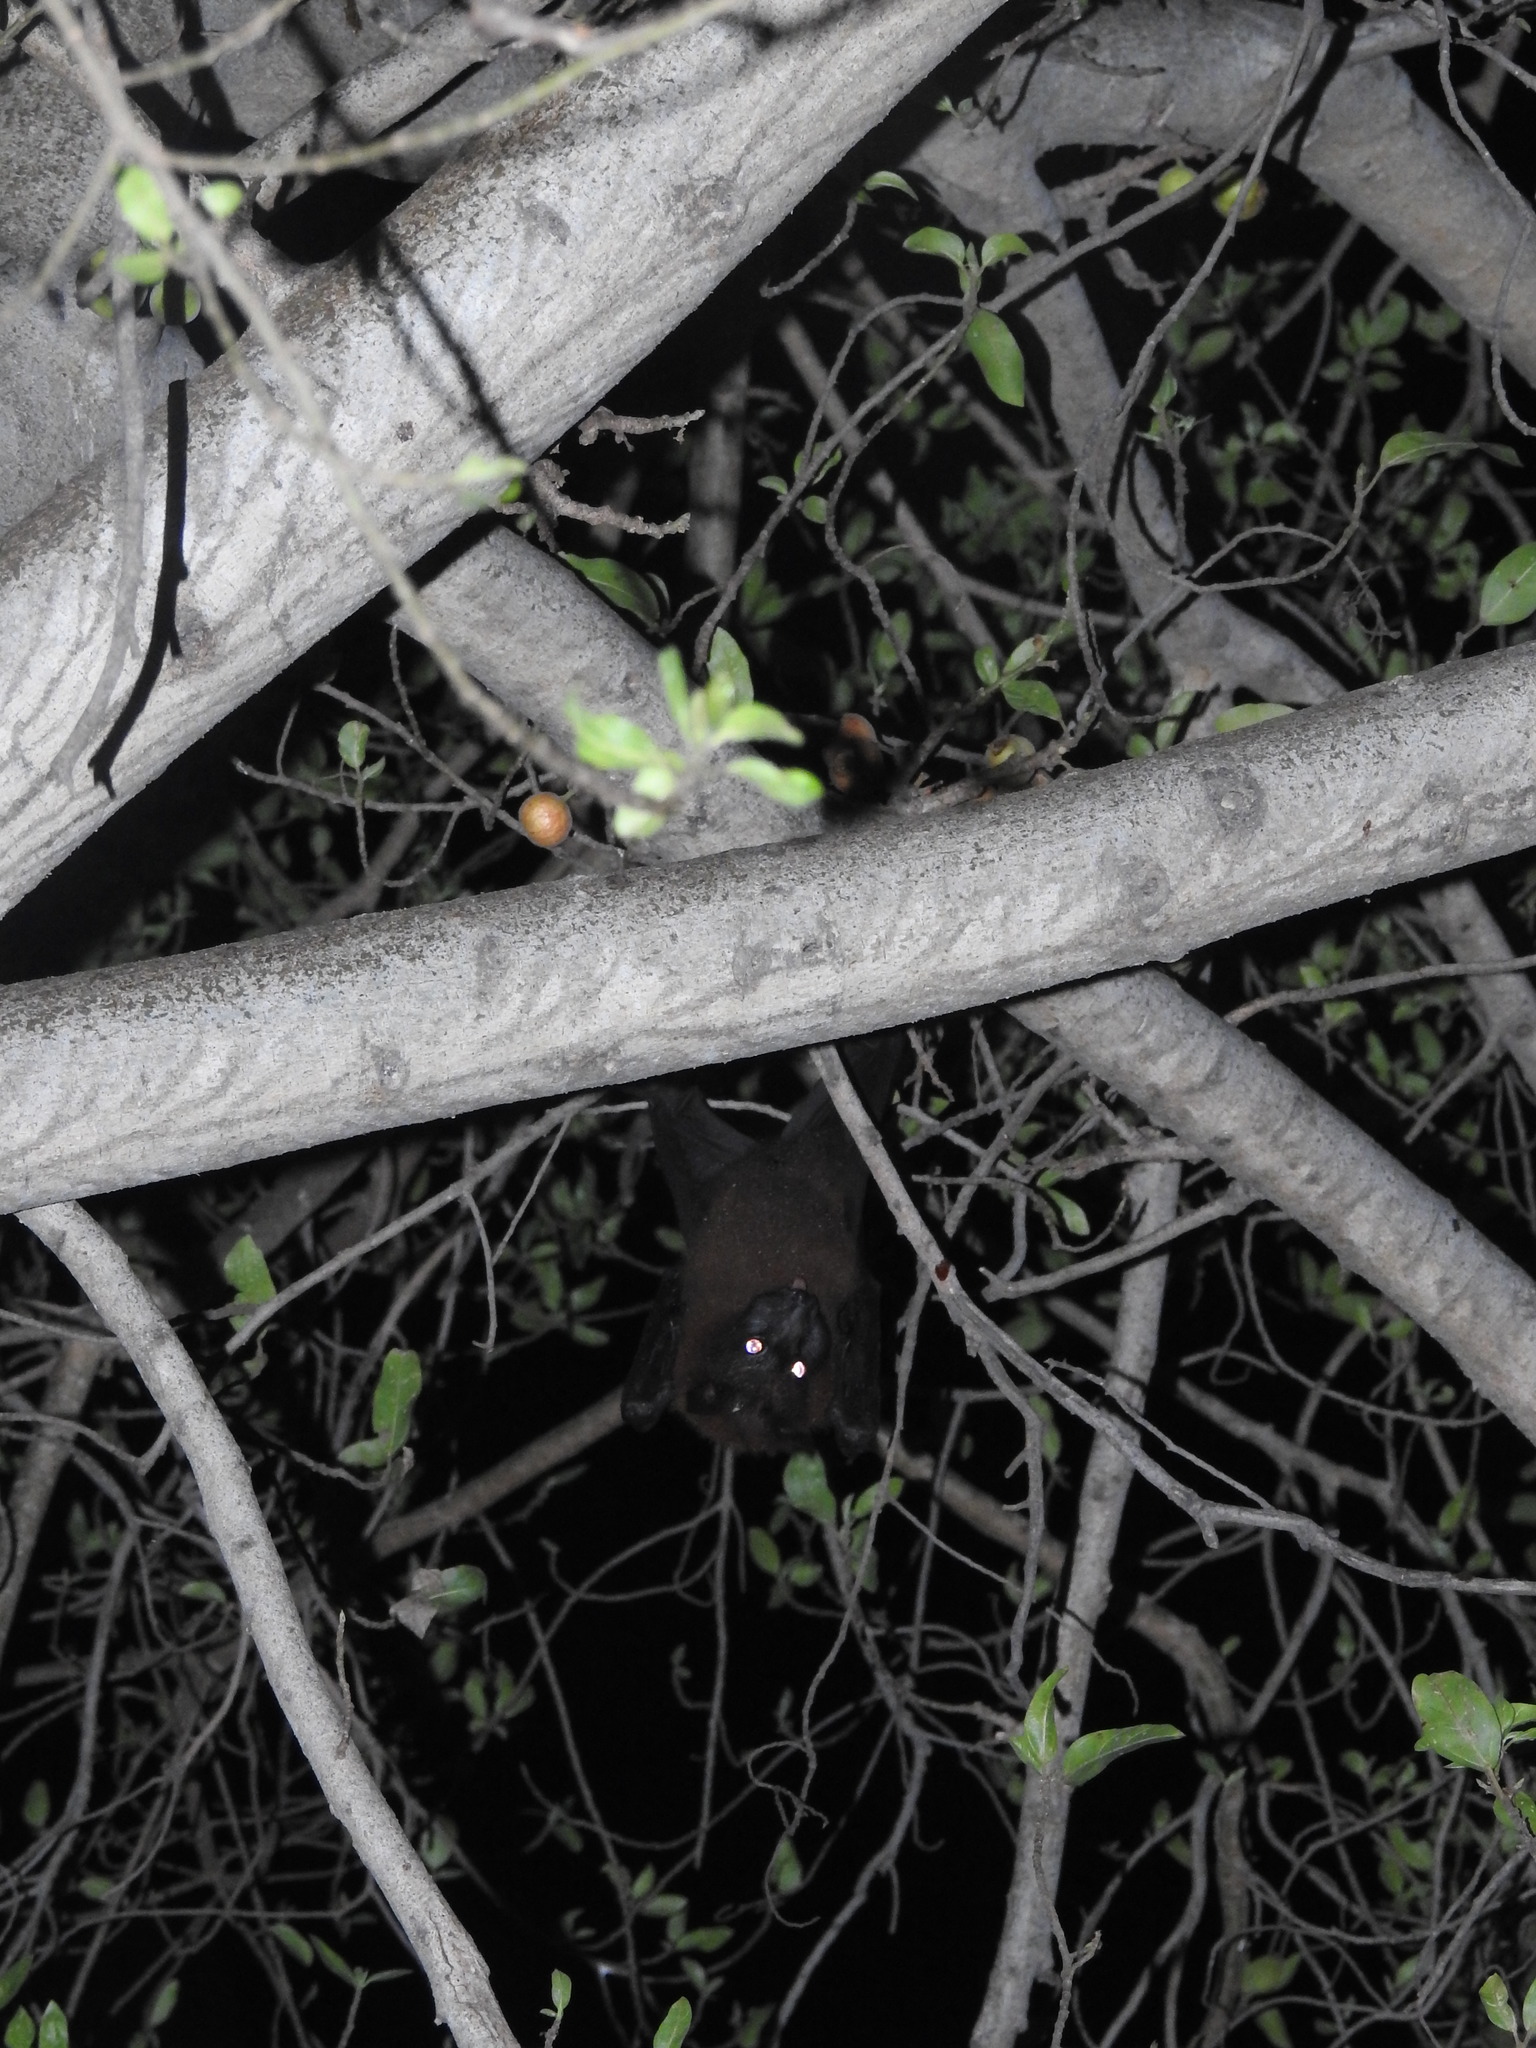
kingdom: Animalia
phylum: Chordata
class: Mammalia
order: Chiroptera
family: Pteropodidae
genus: Pteropus
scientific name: Pteropus vampyrus
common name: Large flying fox
